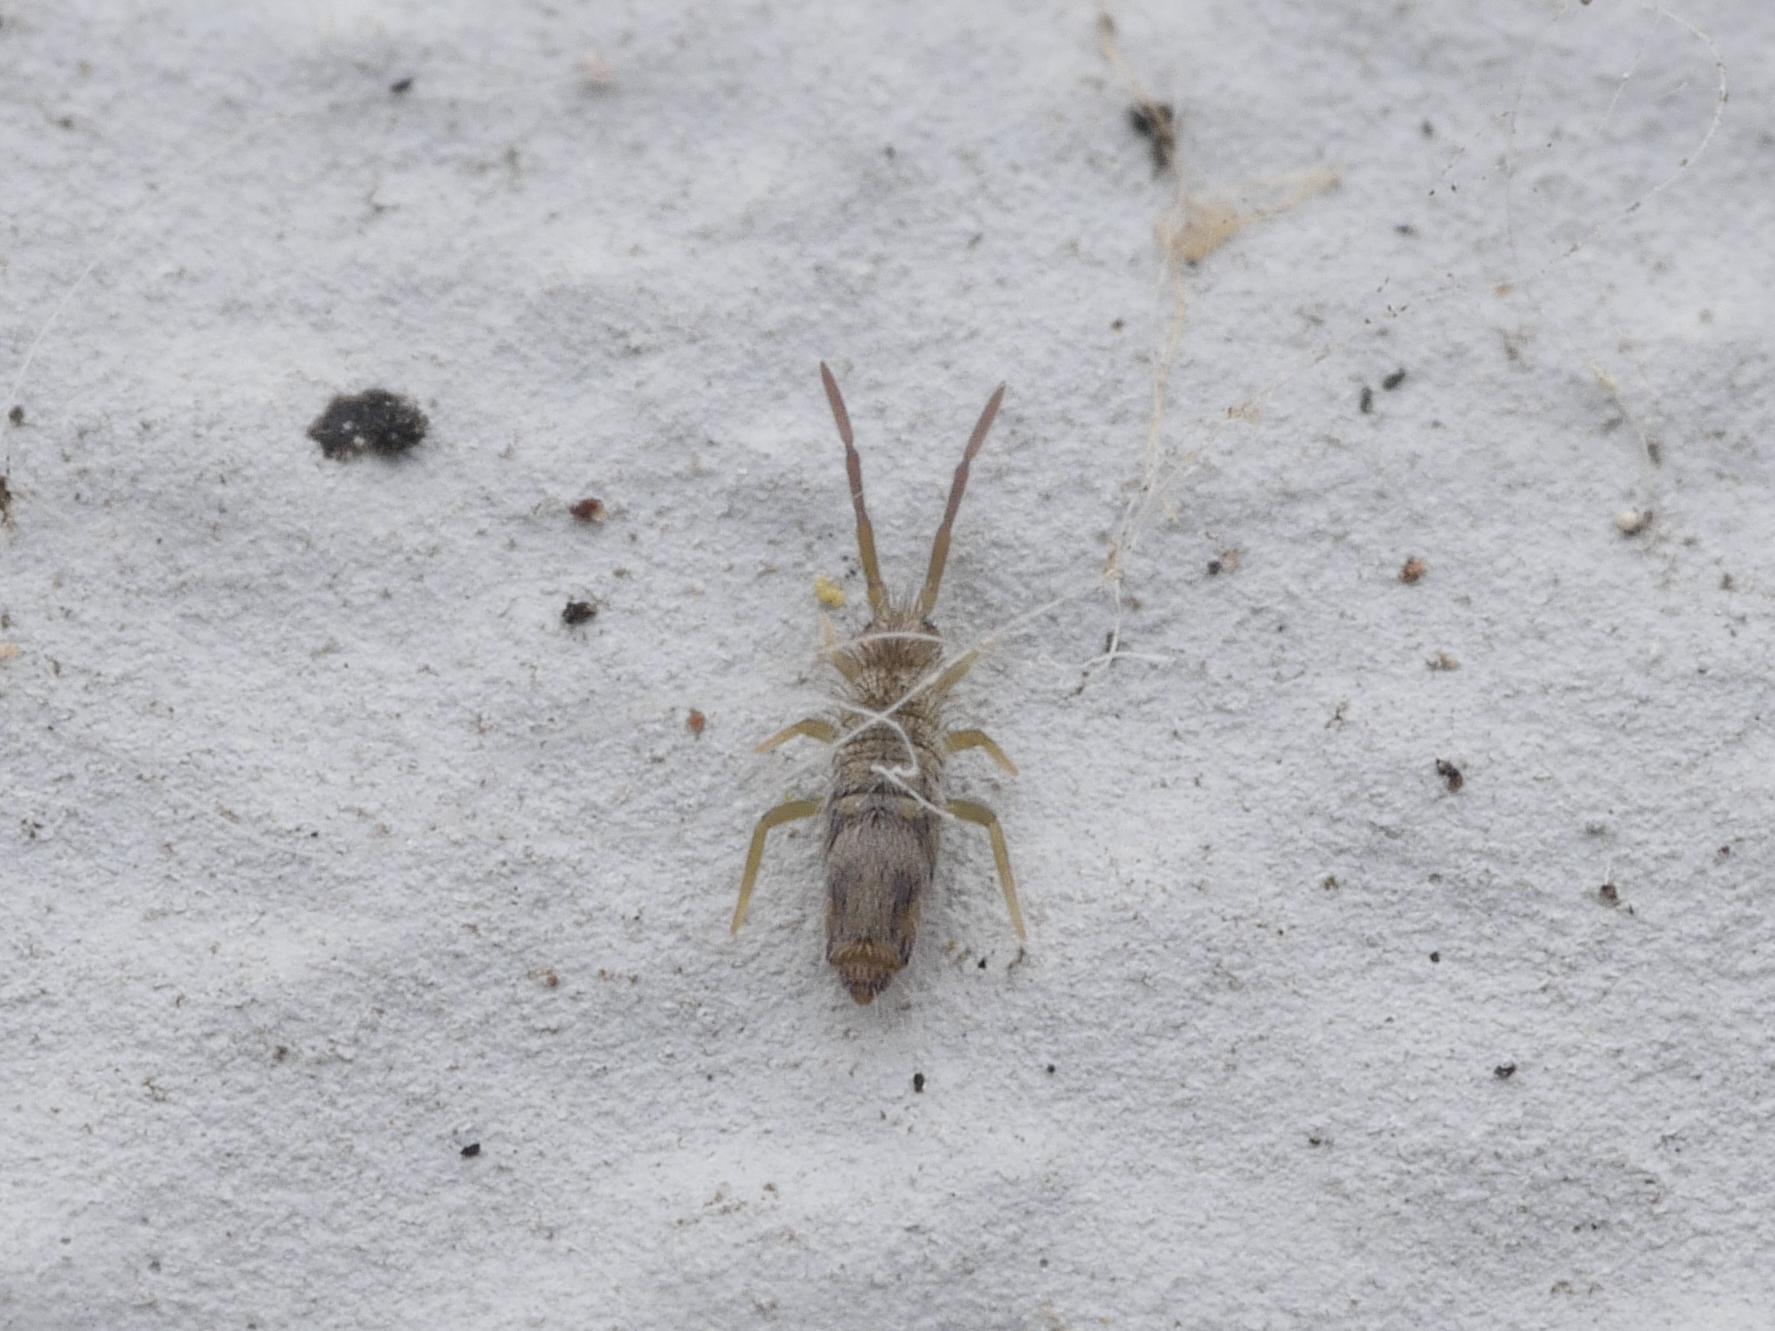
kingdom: Animalia
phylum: Arthropoda
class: Collembola
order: Entomobryomorpha
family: Entomobryidae
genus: Entomobrya
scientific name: Entomobrya nivalis
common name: Cosmopolitan springtail
